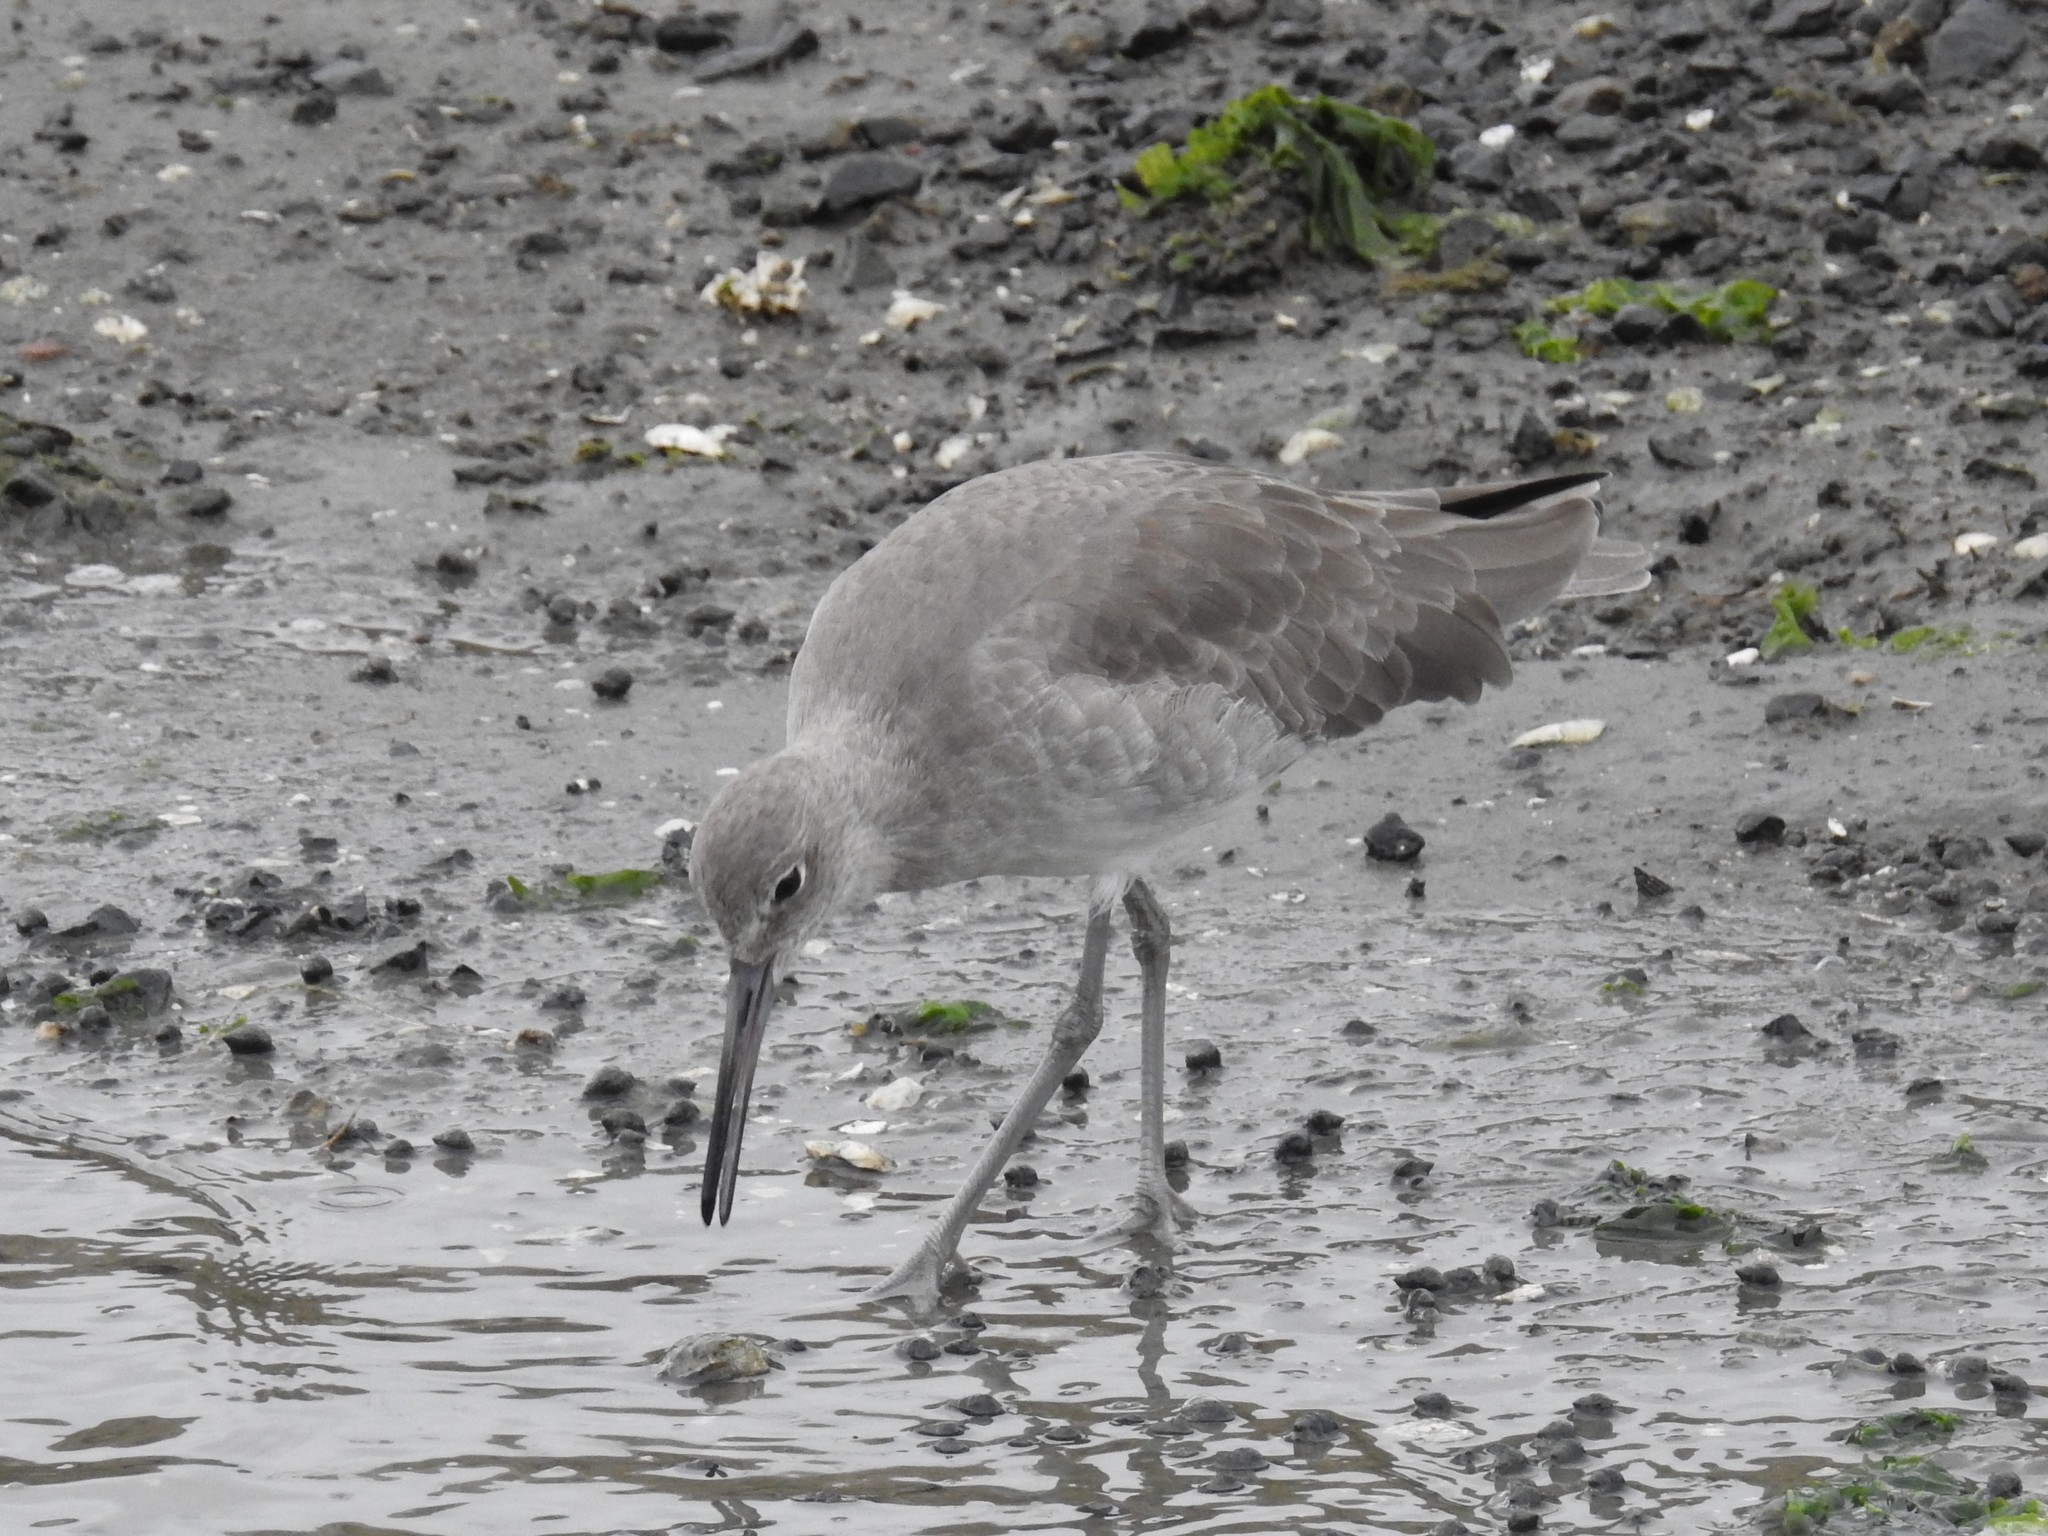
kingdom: Animalia
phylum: Chordata
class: Aves
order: Charadriiformes
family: Scolopacidae
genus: Tringa
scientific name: Tringa semipalmata
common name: Willet
